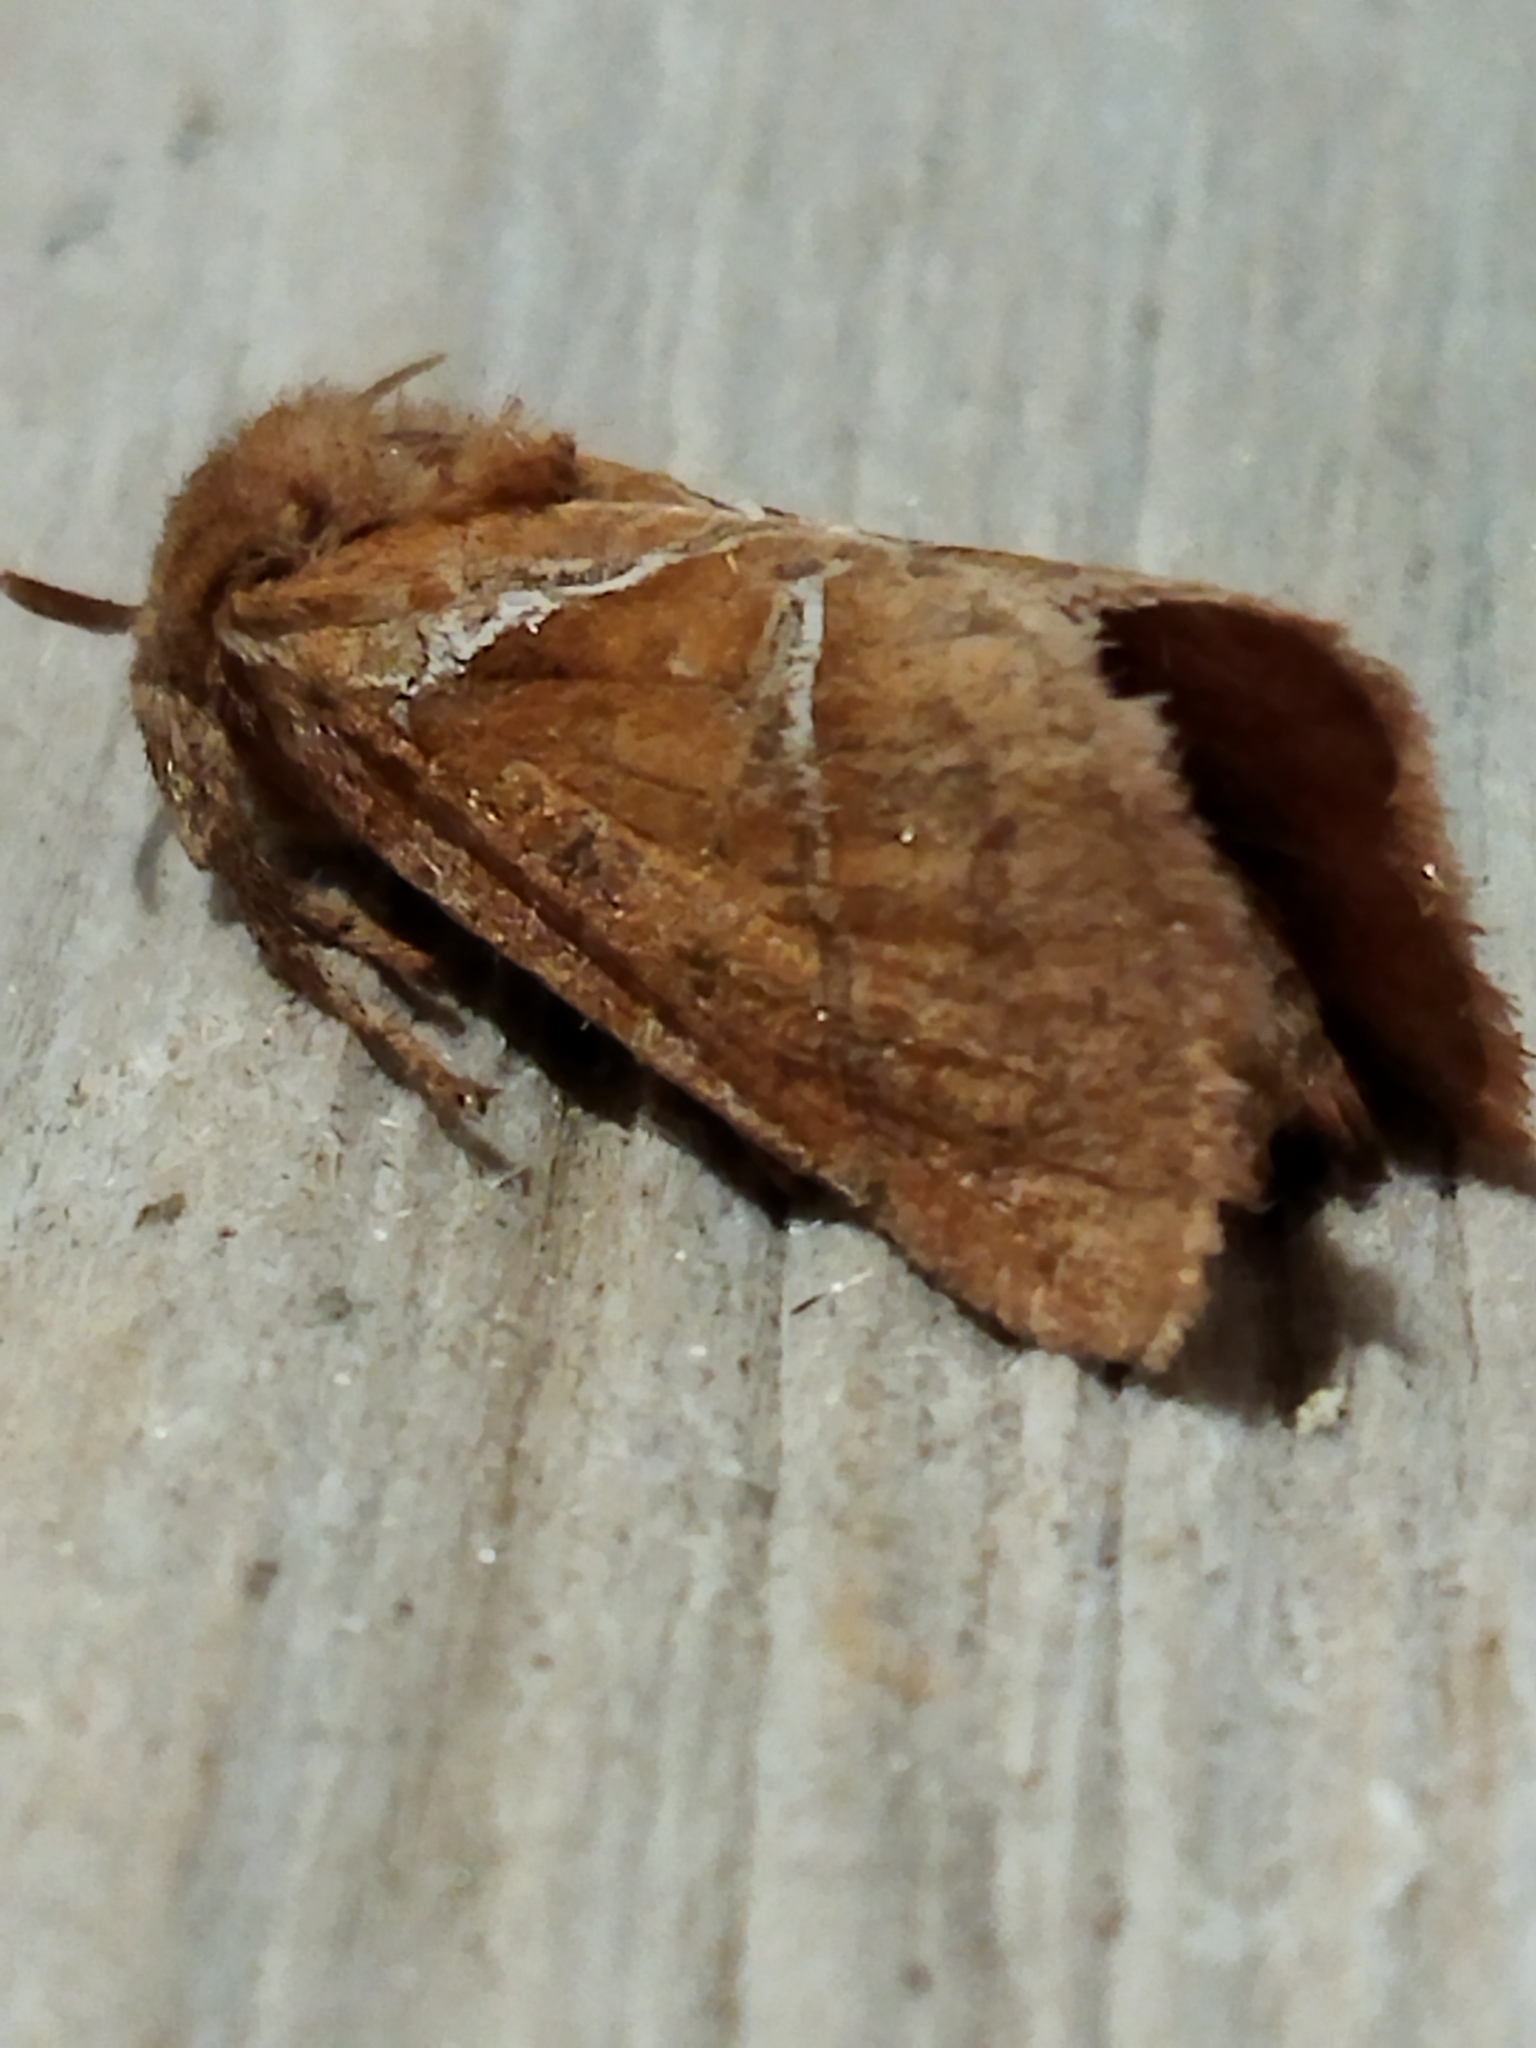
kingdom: Animalia
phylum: Arthropoda
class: Insecta
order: Lepidoptera
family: Hepialidae
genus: Triodia
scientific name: Triodia sylvina
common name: Orange swift
